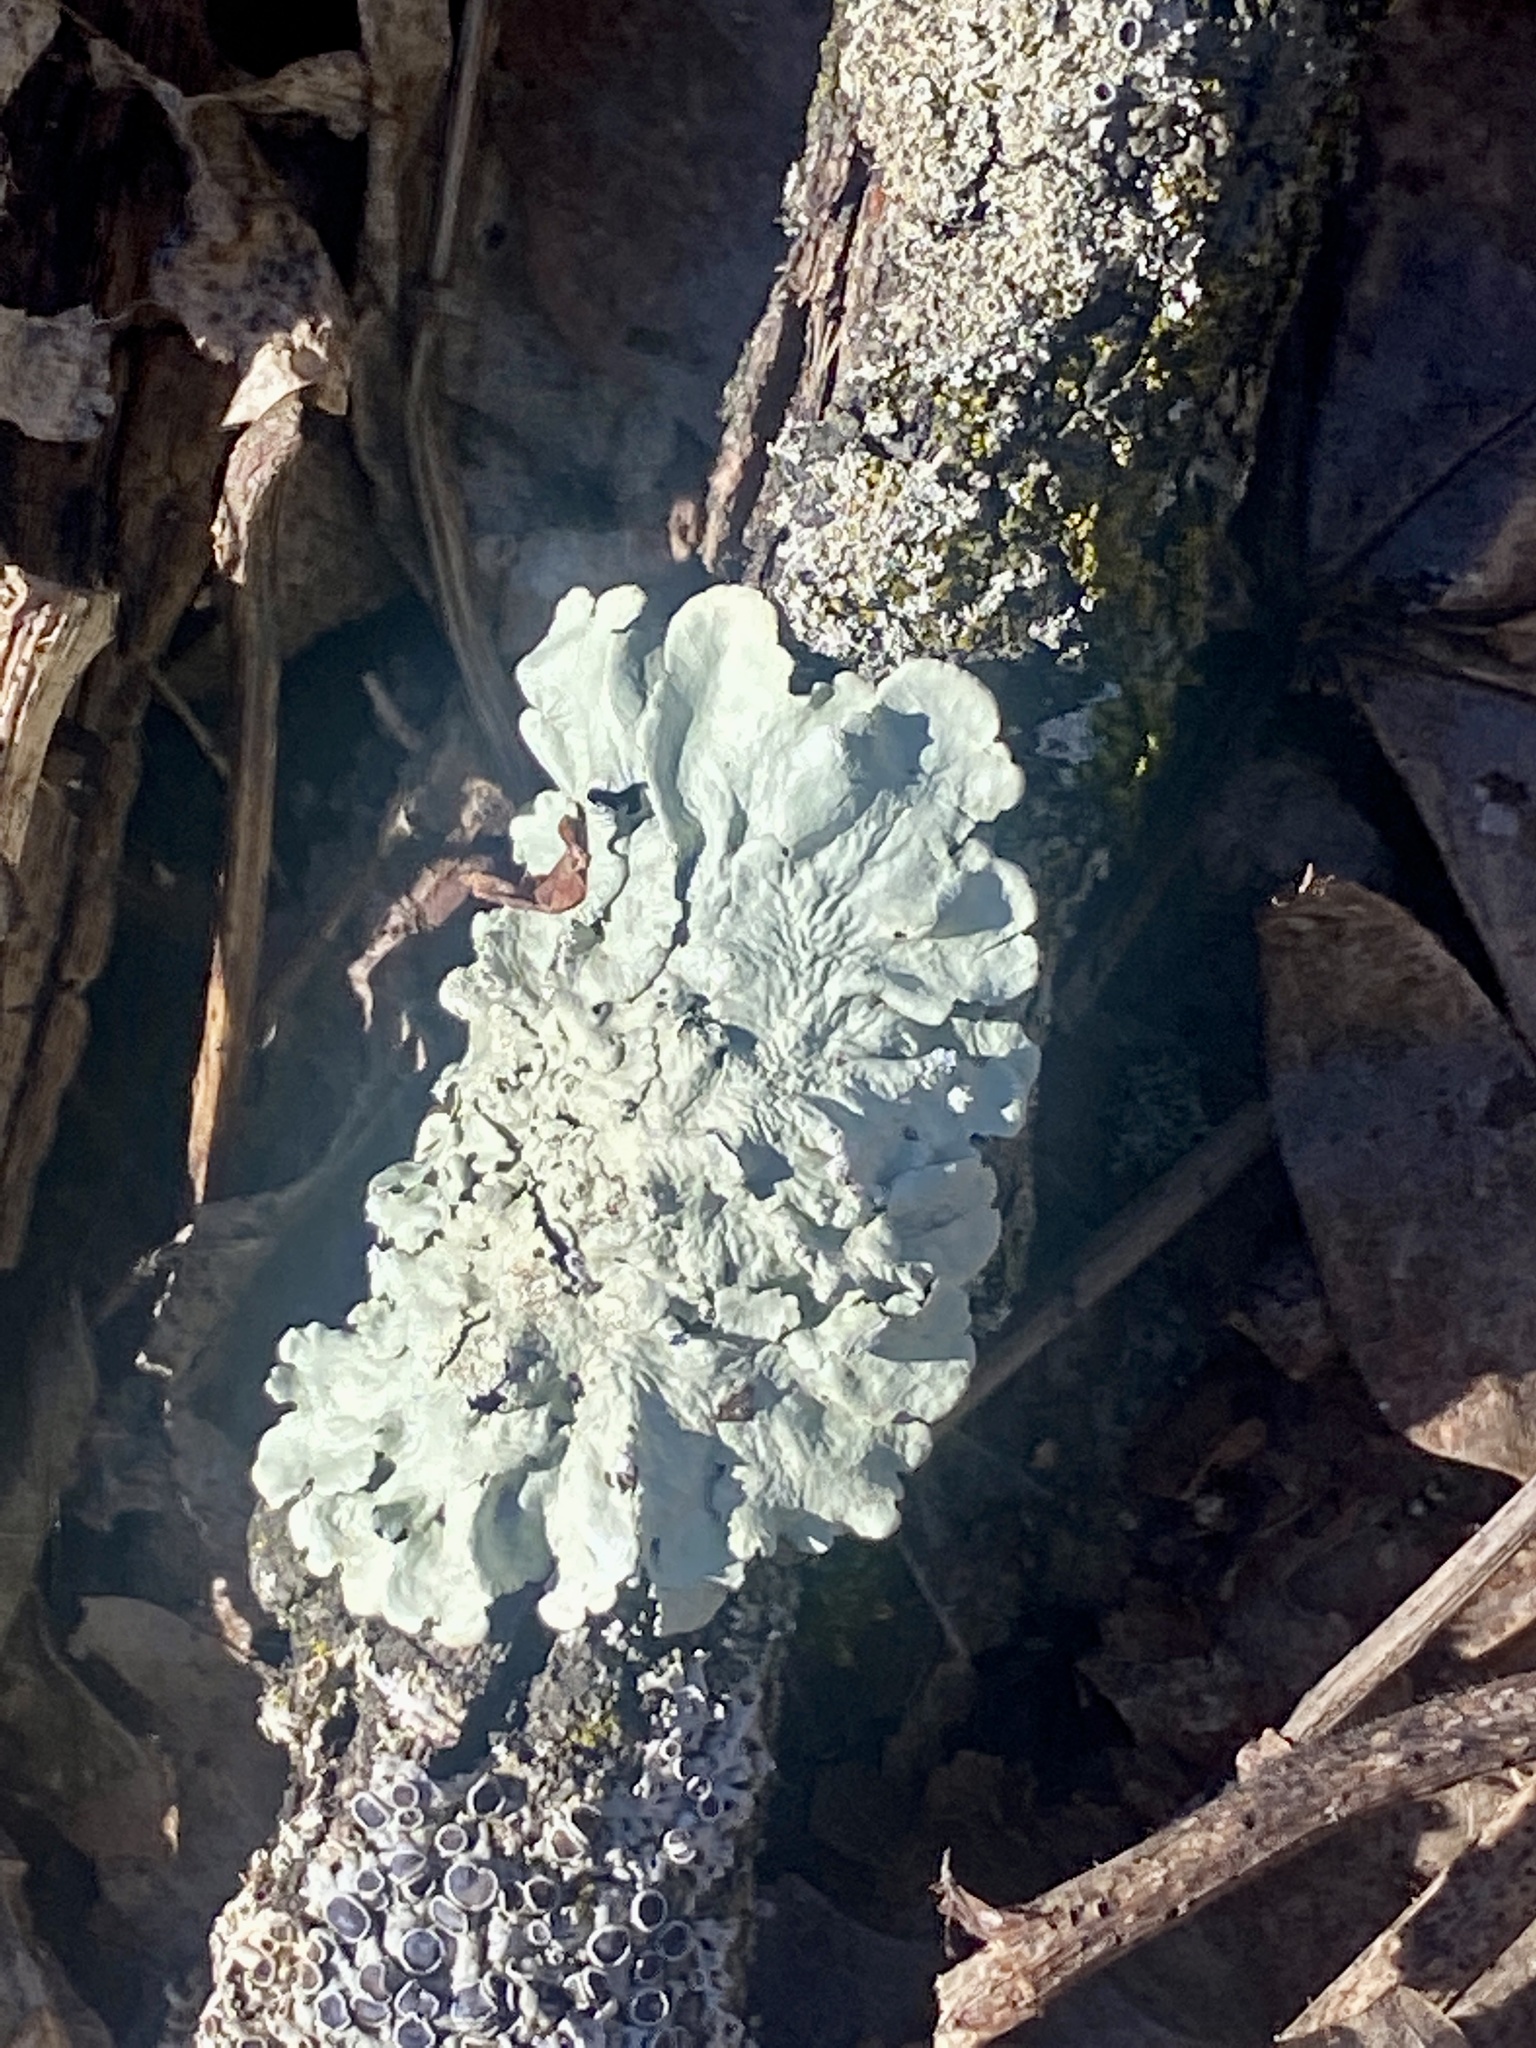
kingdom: Fungi
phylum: Ascomycota
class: Lecanoromycetes
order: Lecanorales
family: Parmeliaceae
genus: Flavoparmelia
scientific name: Flavoparmelia caperata
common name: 40-mile per hour lichen
